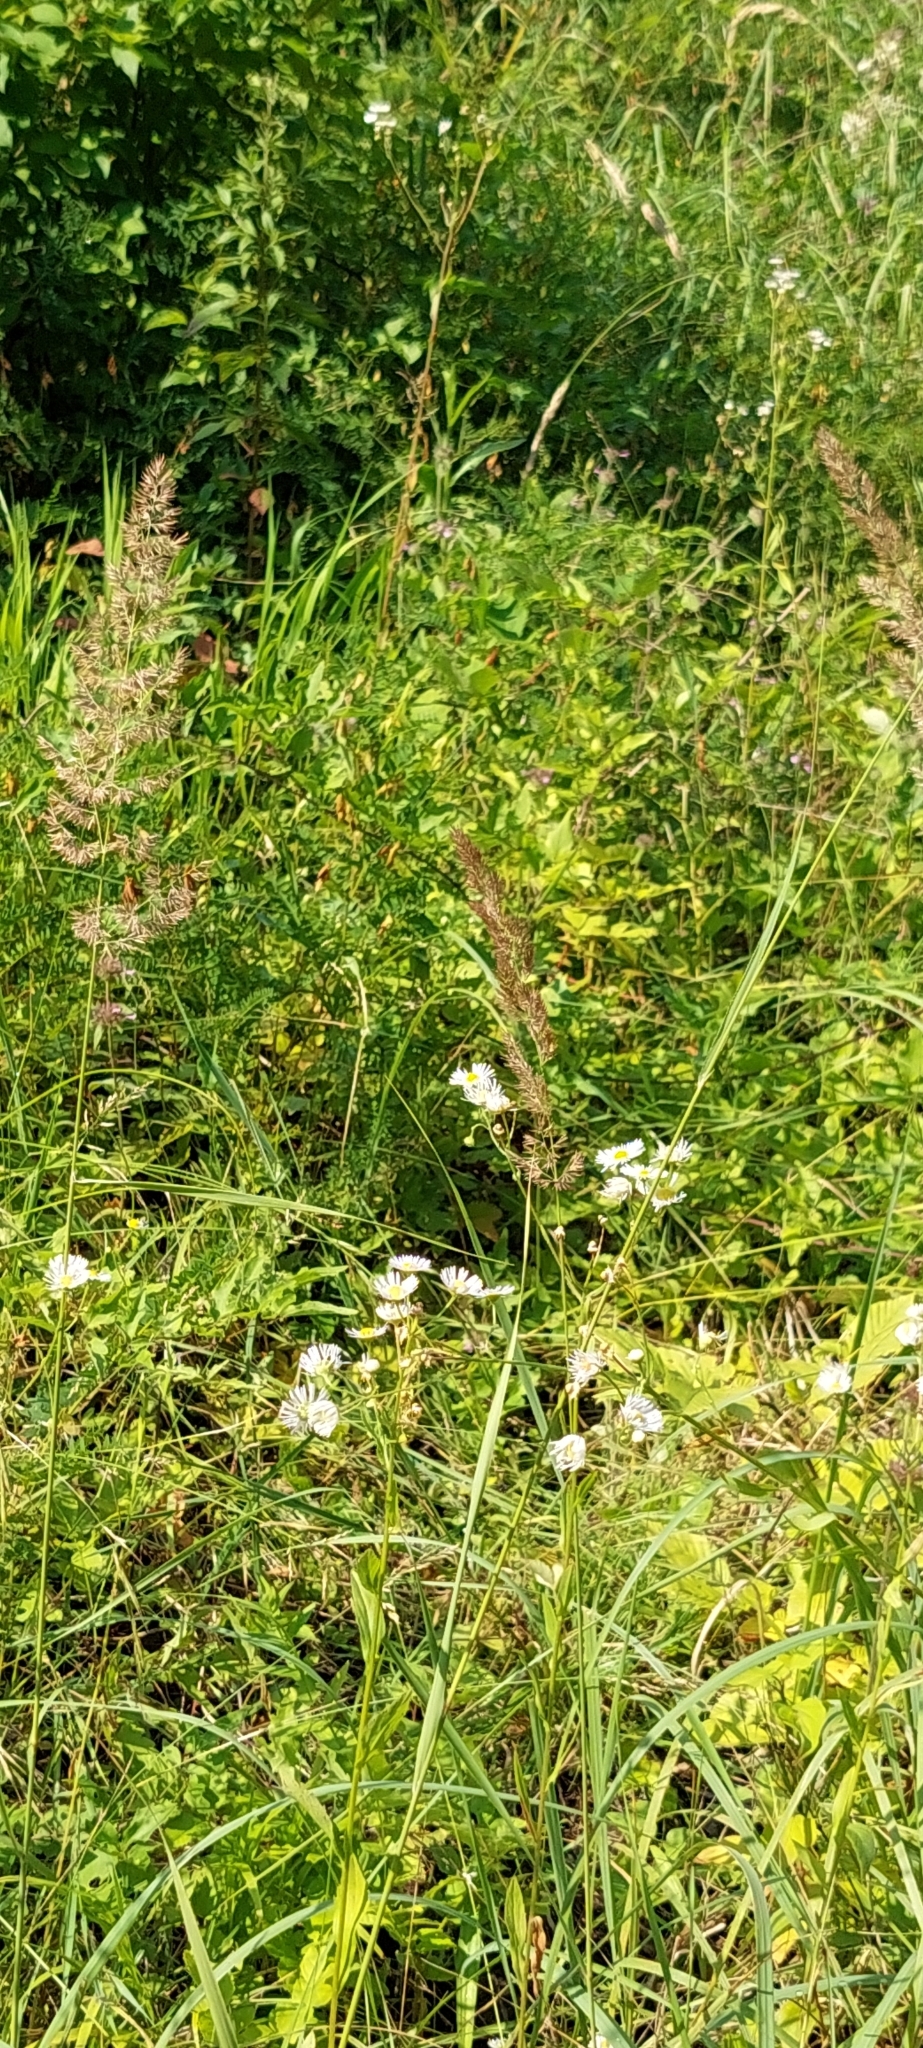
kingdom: Plantae
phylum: Tracheophyta
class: Liliopsida
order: Poales
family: Poaceae
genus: Calamagrostis
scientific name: Calamagrostis epigejos
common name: Wood small-reed
